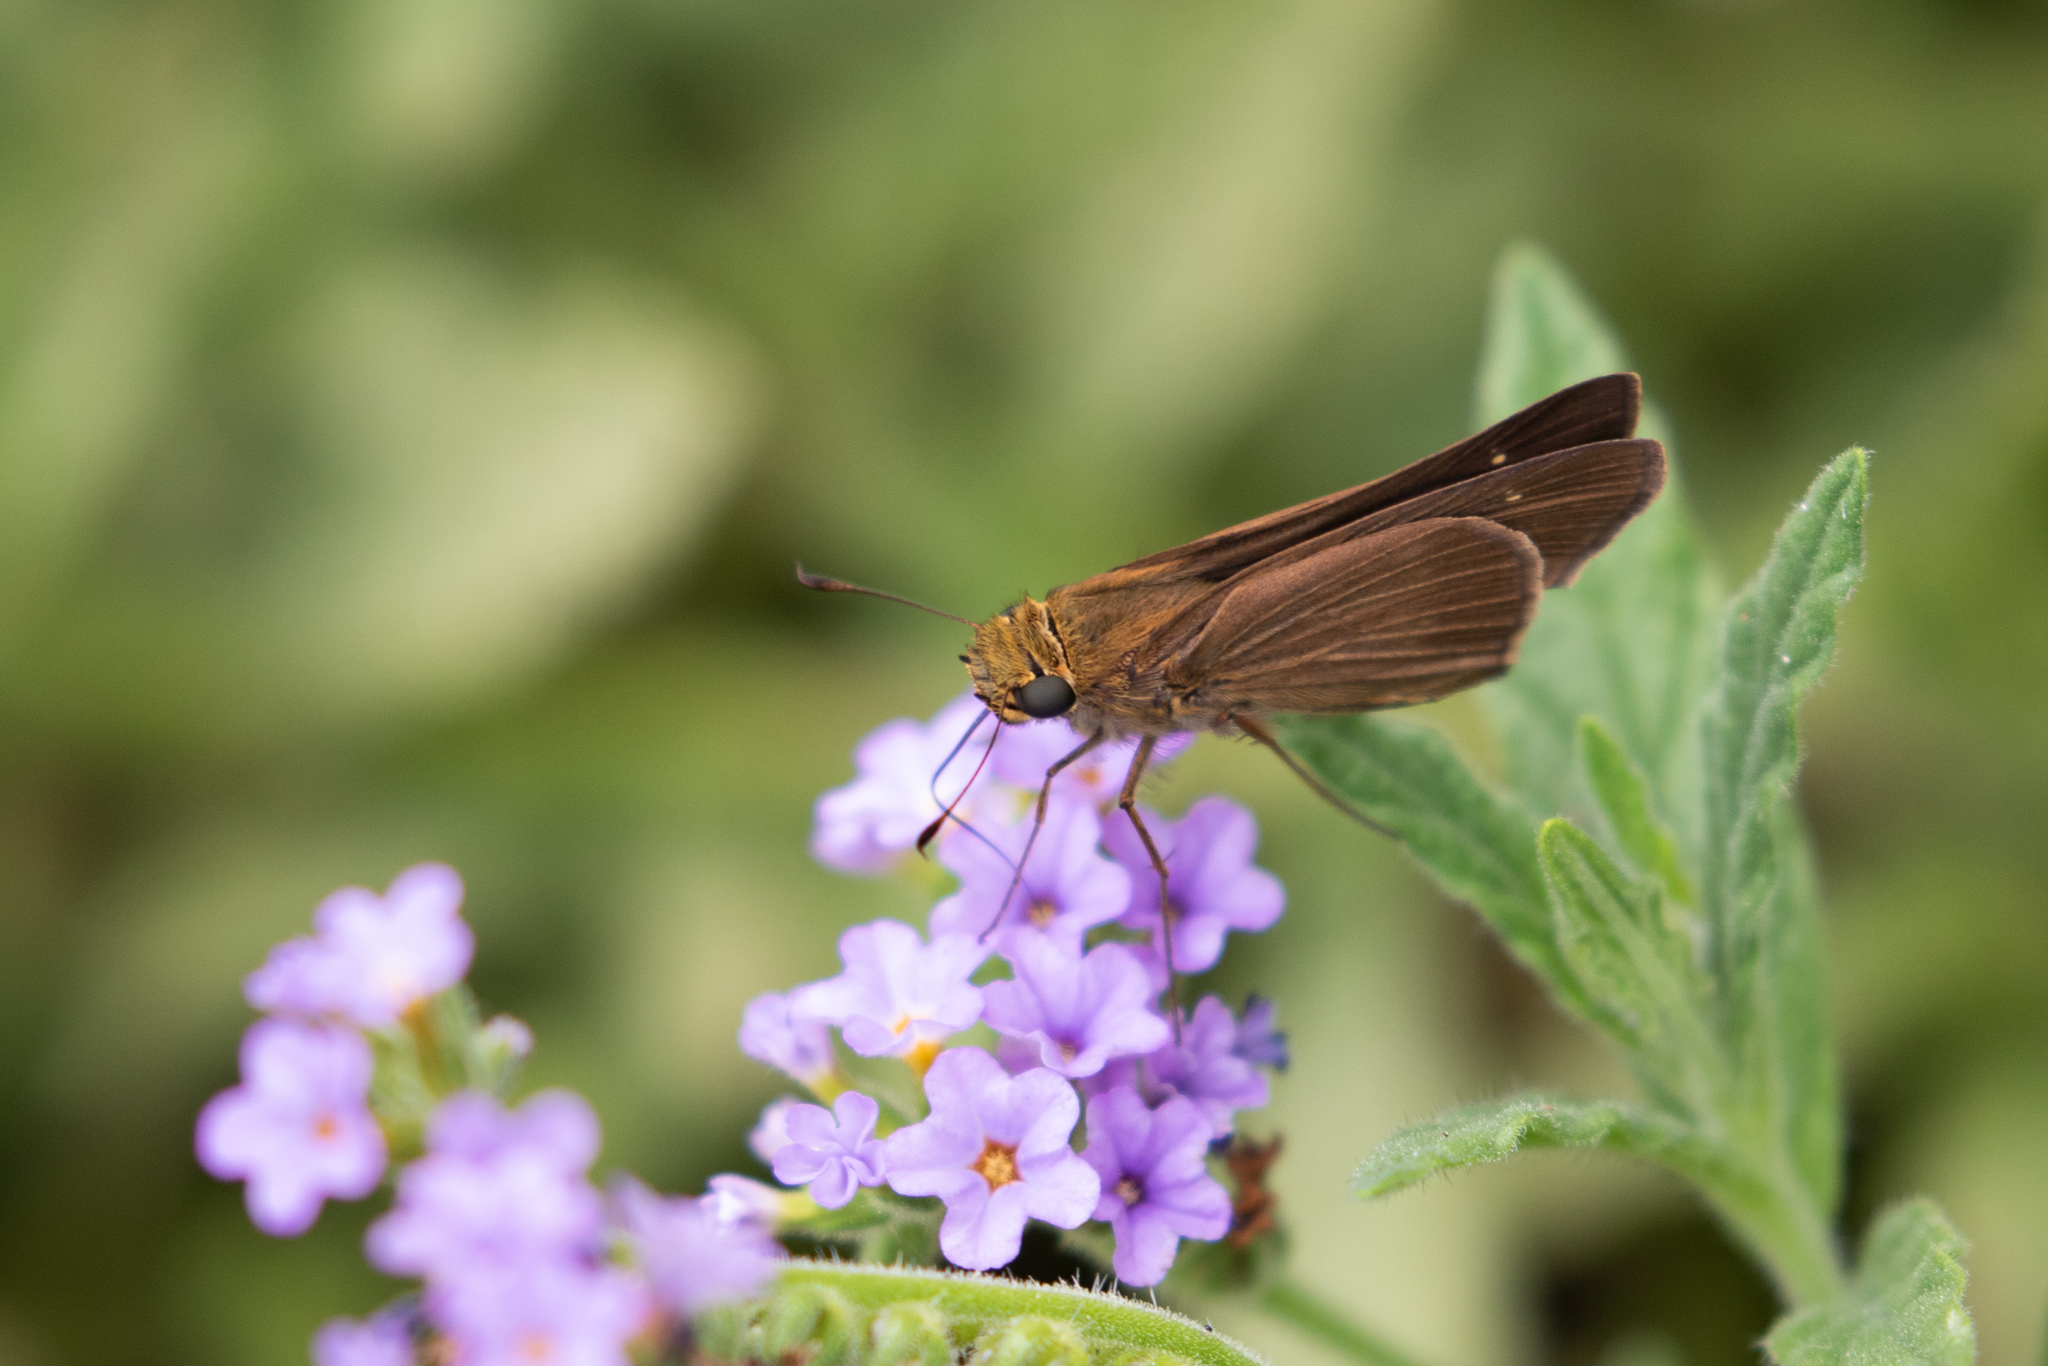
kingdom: Animalia
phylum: Arthropoda
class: Insecta
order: Lepidoptera
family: Hesperiidae
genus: Panoquina
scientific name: Panoquina ocola
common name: Ocola skipper
